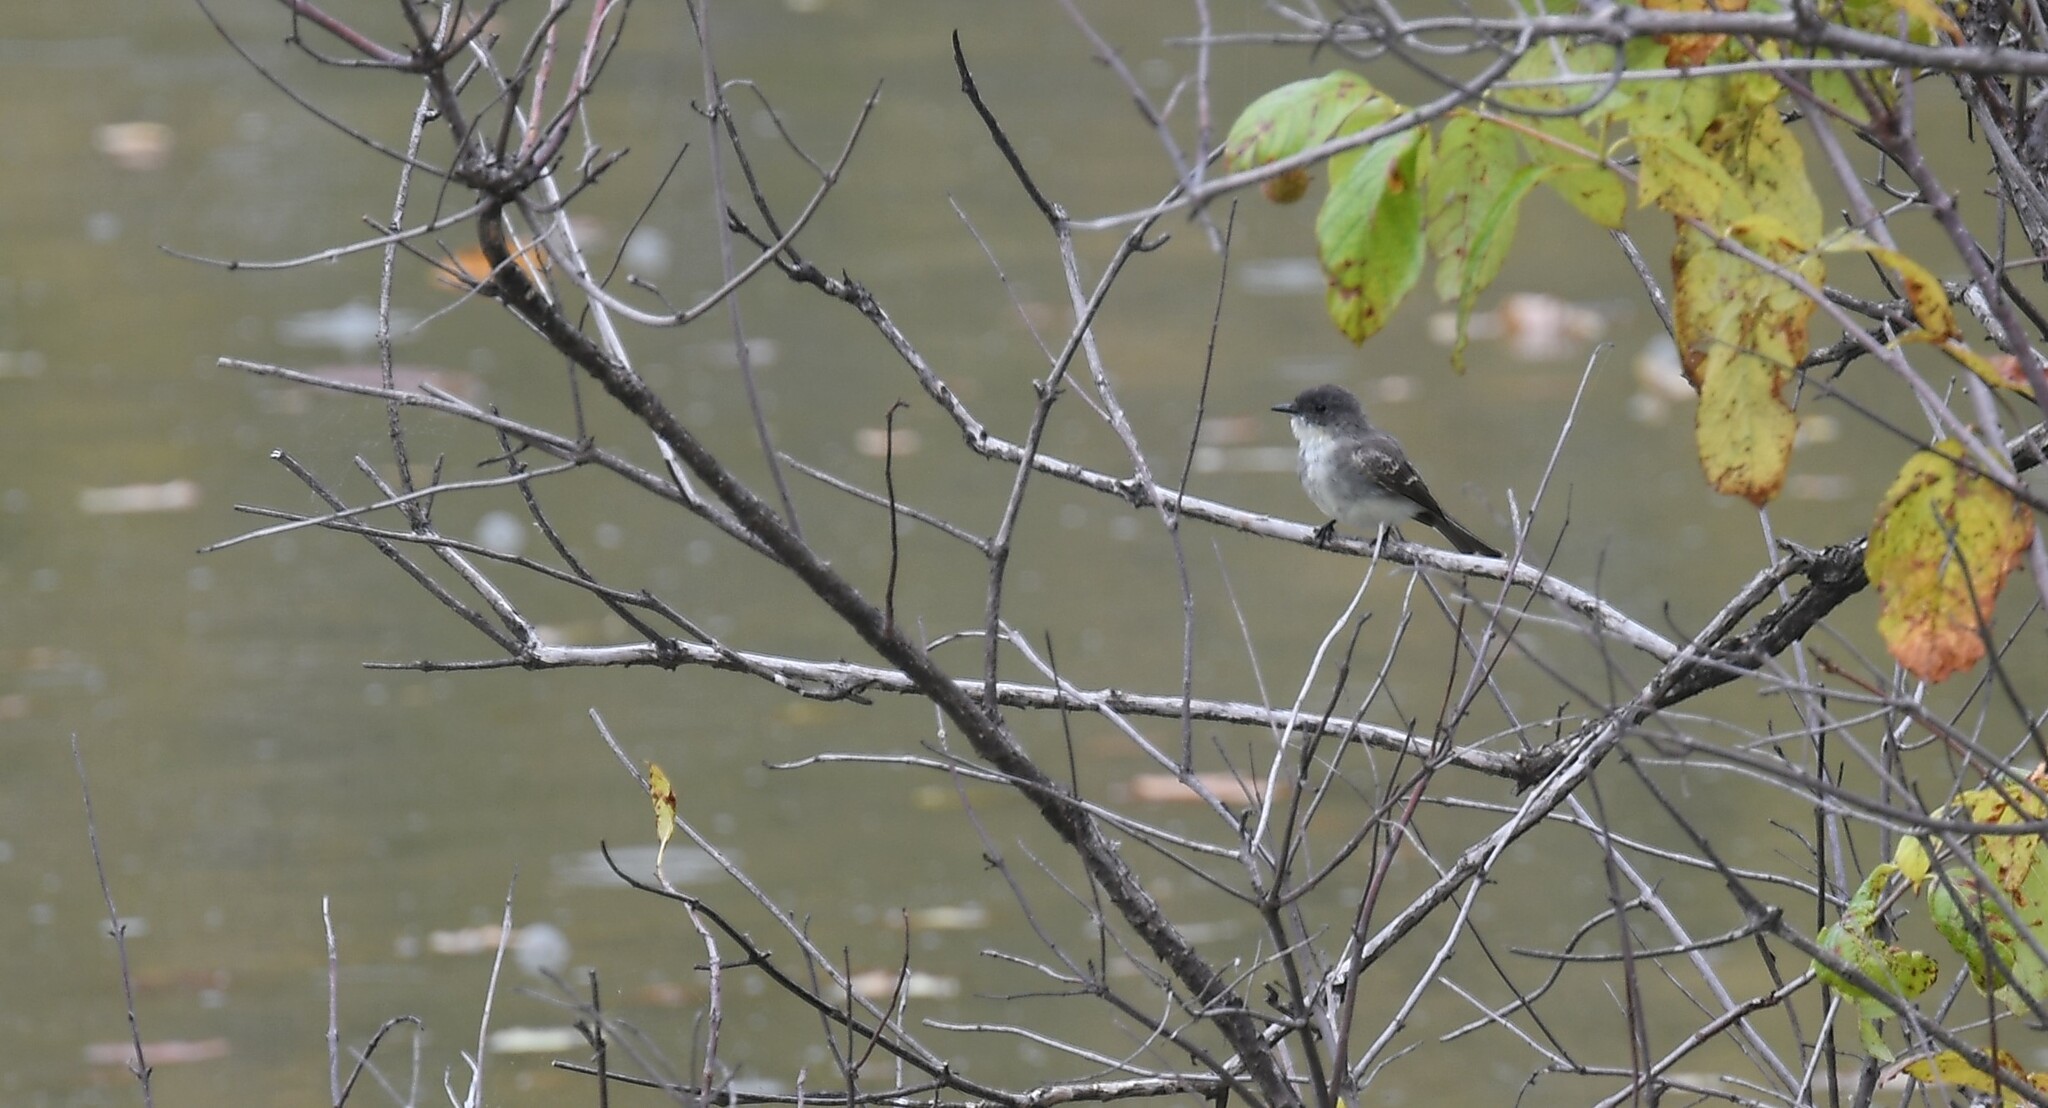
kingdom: Animalia
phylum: Chordata
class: Aves
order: Passeriformes
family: Tyrannidae
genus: Sayornis
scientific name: Sayornis phoebe
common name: Eastern phoebe
